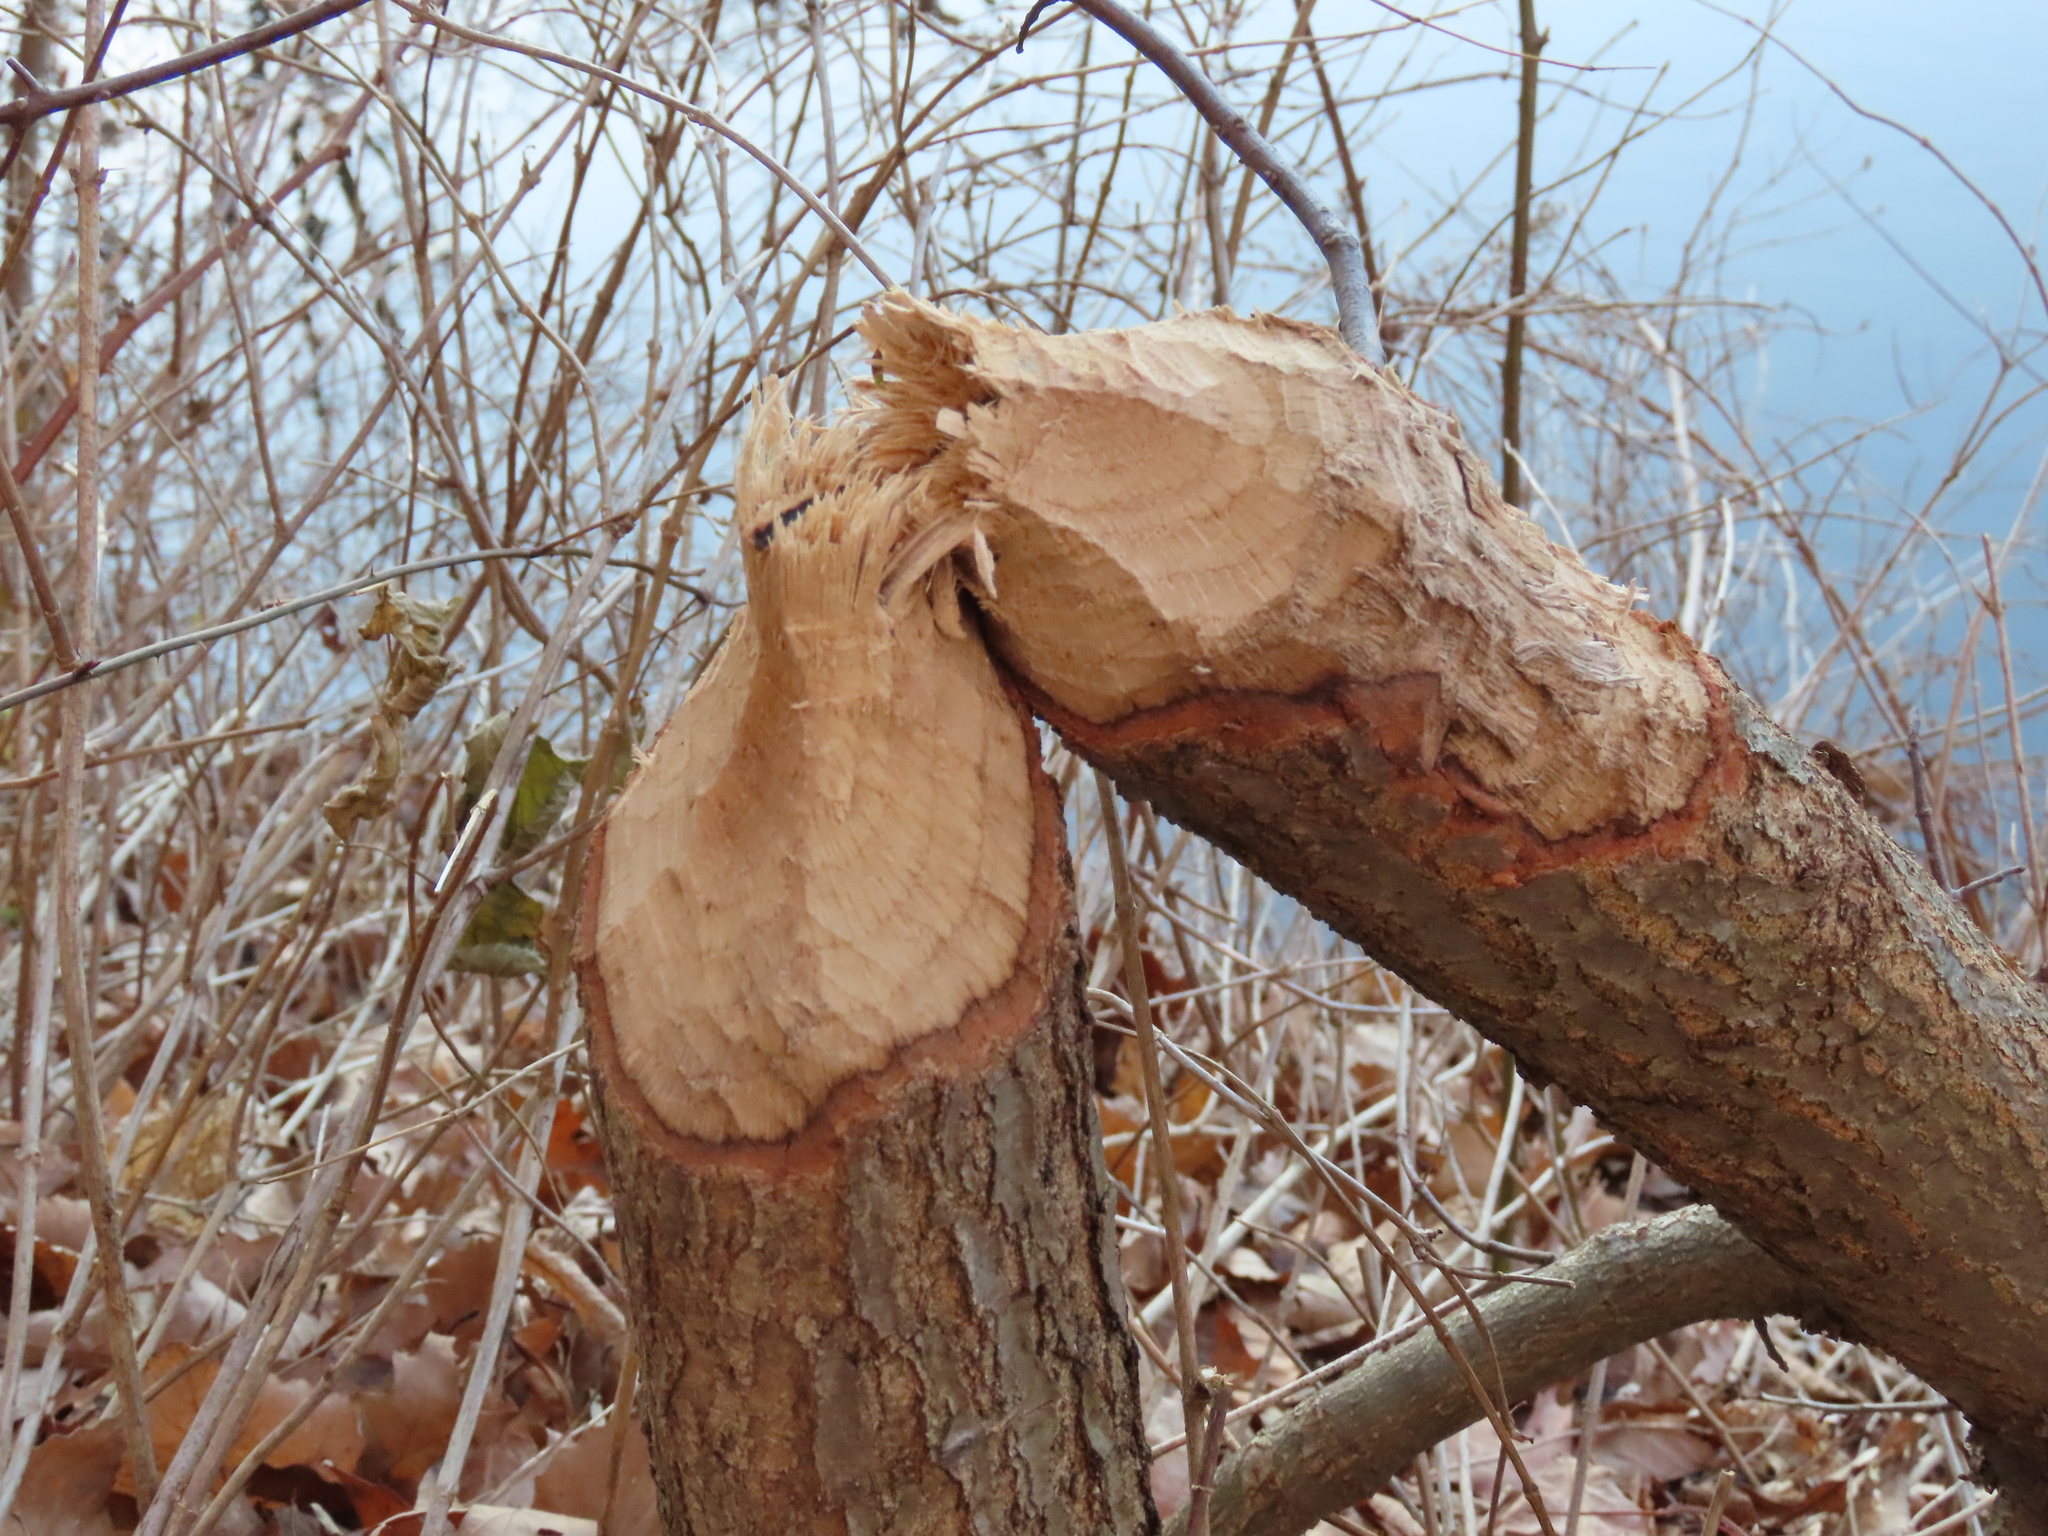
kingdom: Animalia
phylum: Chordata
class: Mammalia
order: Rodentia
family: Castoridae
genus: Castor
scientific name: Castor canadensis
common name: American beaver
